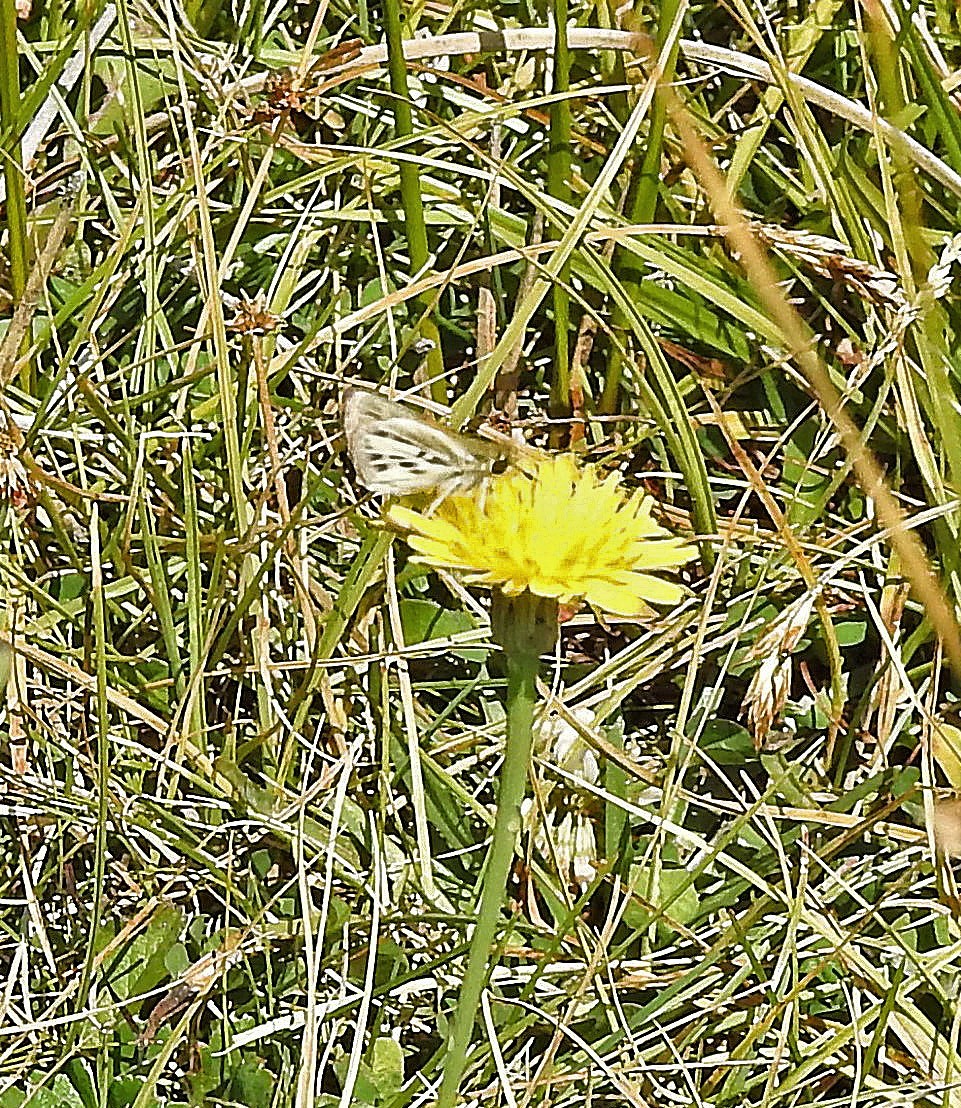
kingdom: Animalia
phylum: Arthropoda
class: Insecta
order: Lepidoptera
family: Hesperiidae
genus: Hylephila
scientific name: Hylephila
